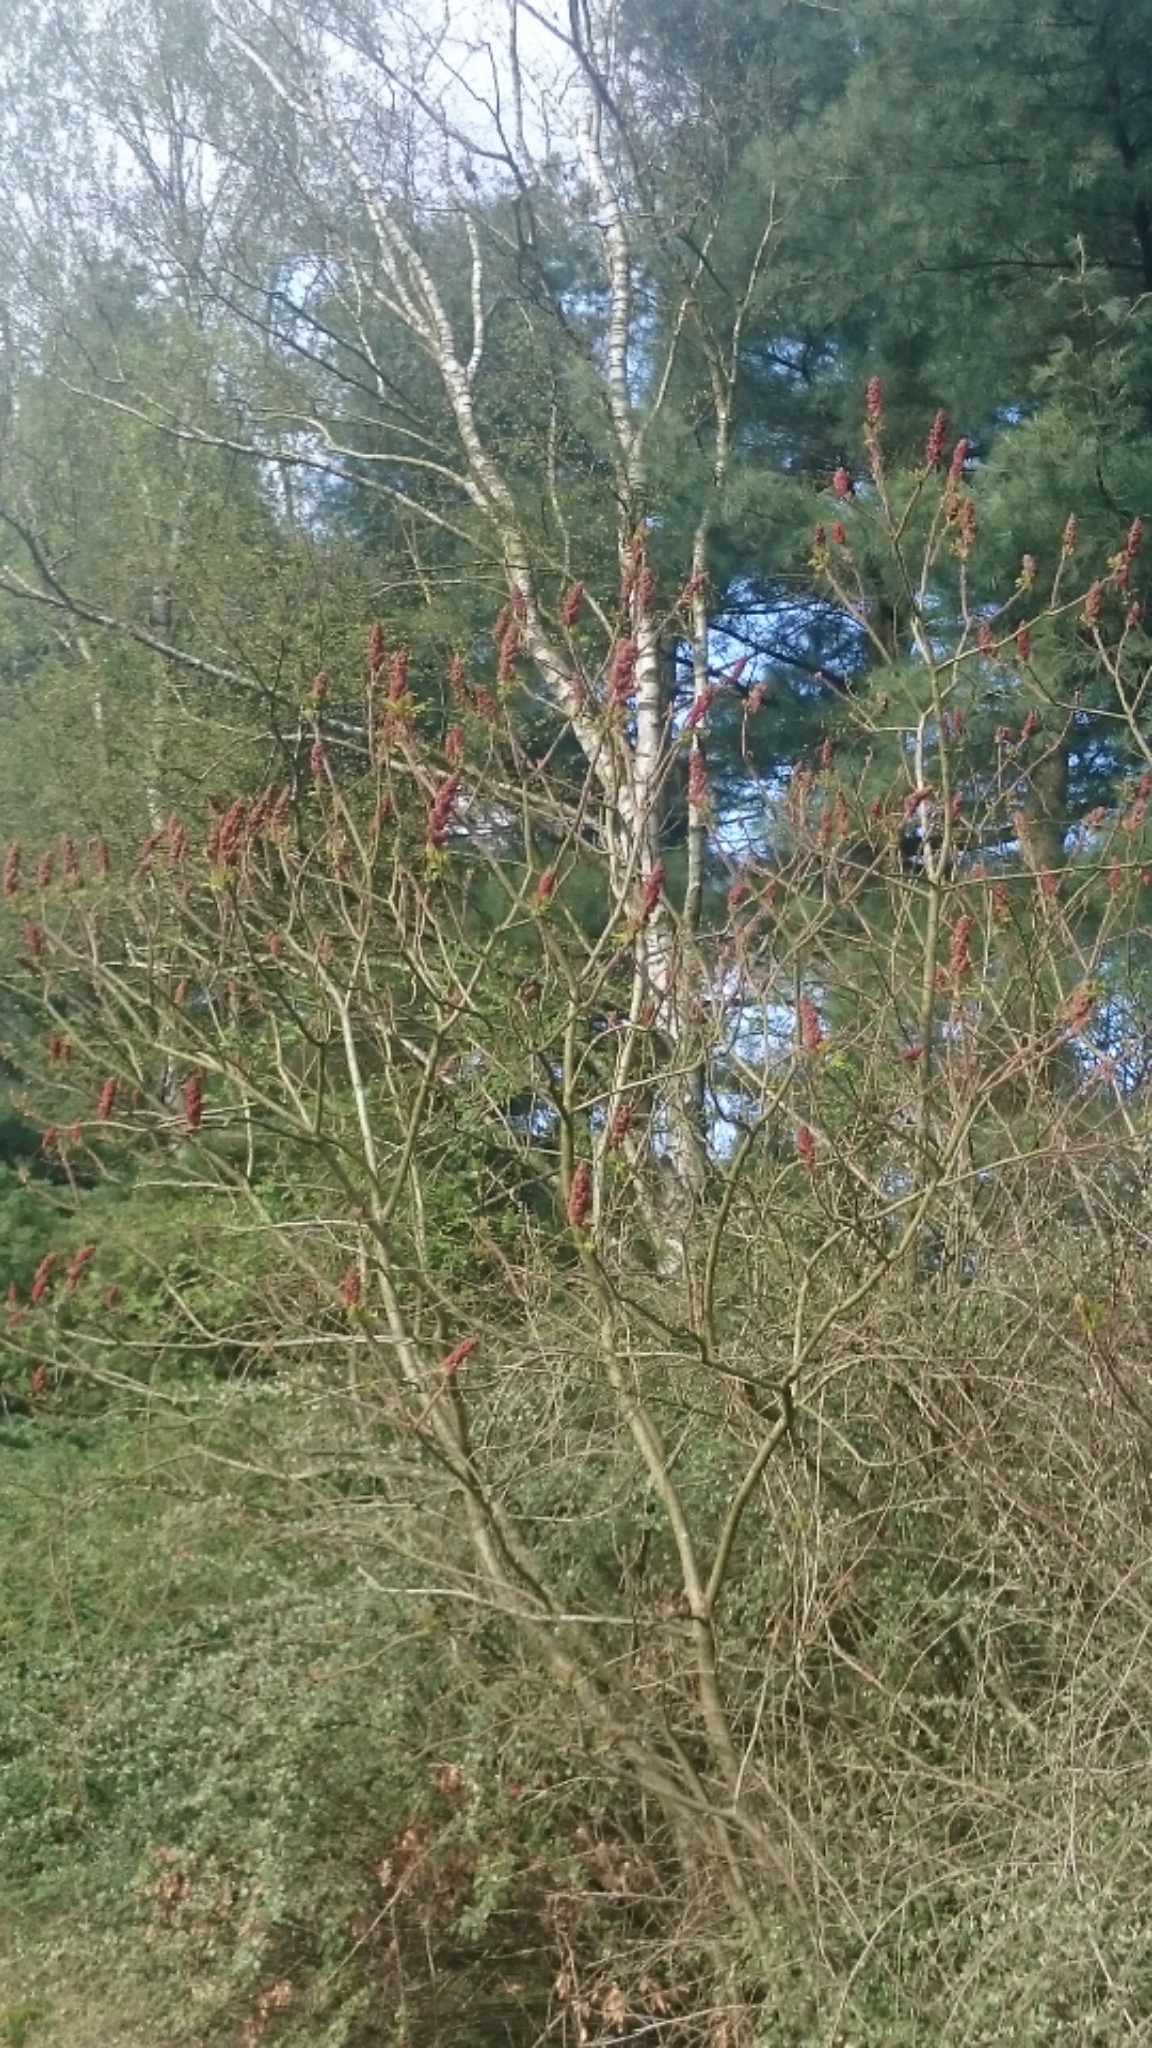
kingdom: Plantae
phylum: Tracheophyta
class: Magnoliopsida
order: Sapindales
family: Anacardiaceae
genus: Rhus
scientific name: Rhus typhina
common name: Staghorn sumac
